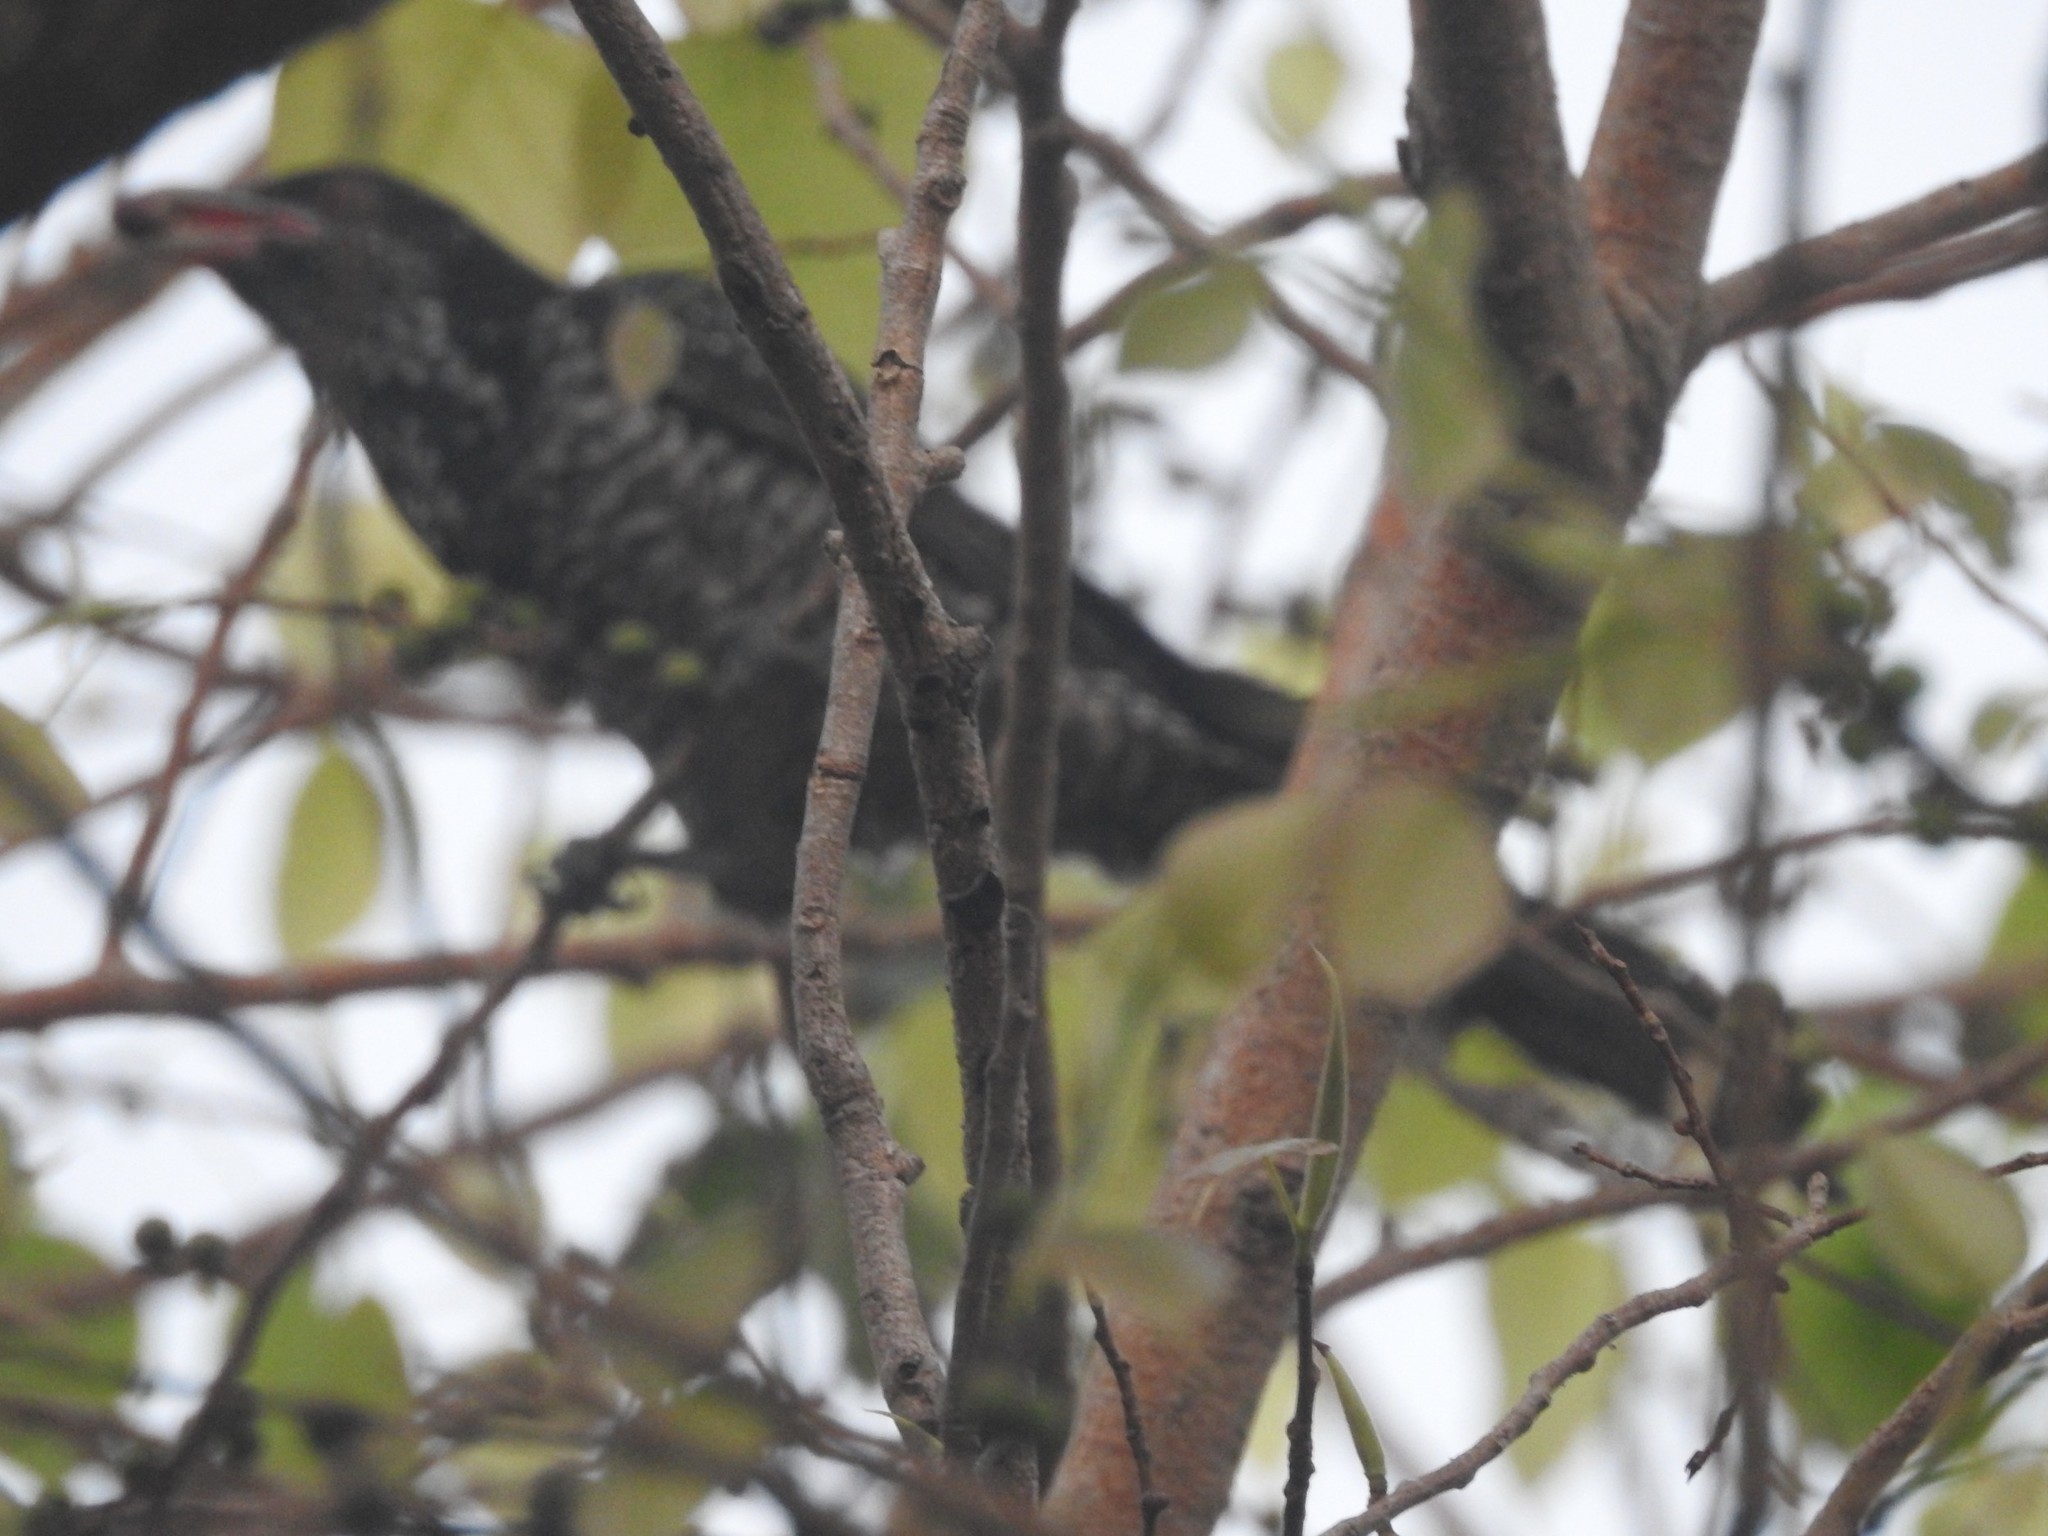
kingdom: Animalia
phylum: Chordata
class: Aves
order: Cuculiformes
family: Cuculidae
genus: Eudynamys
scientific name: Eudynamys scolopaceus
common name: Asian koel
